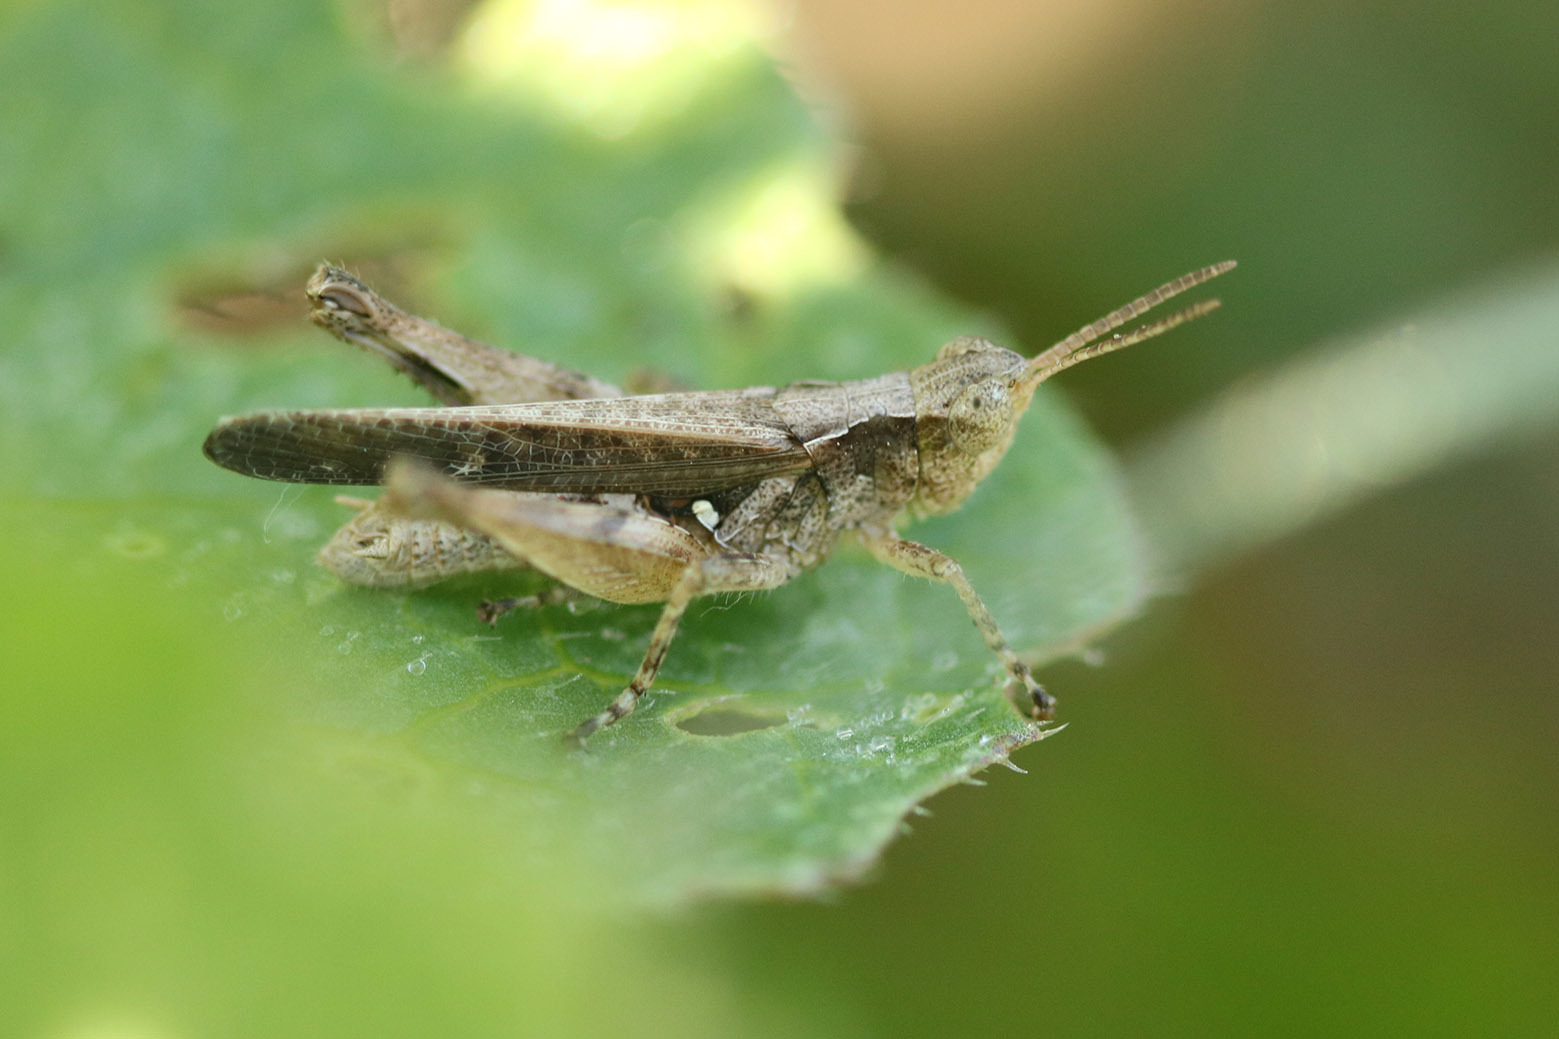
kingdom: Animalia
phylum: Arthropoda
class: Insecta
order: Orthoptera
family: Acrididae
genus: Orphulella
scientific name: Orphulella punctata
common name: Slant-faced grasshopper
